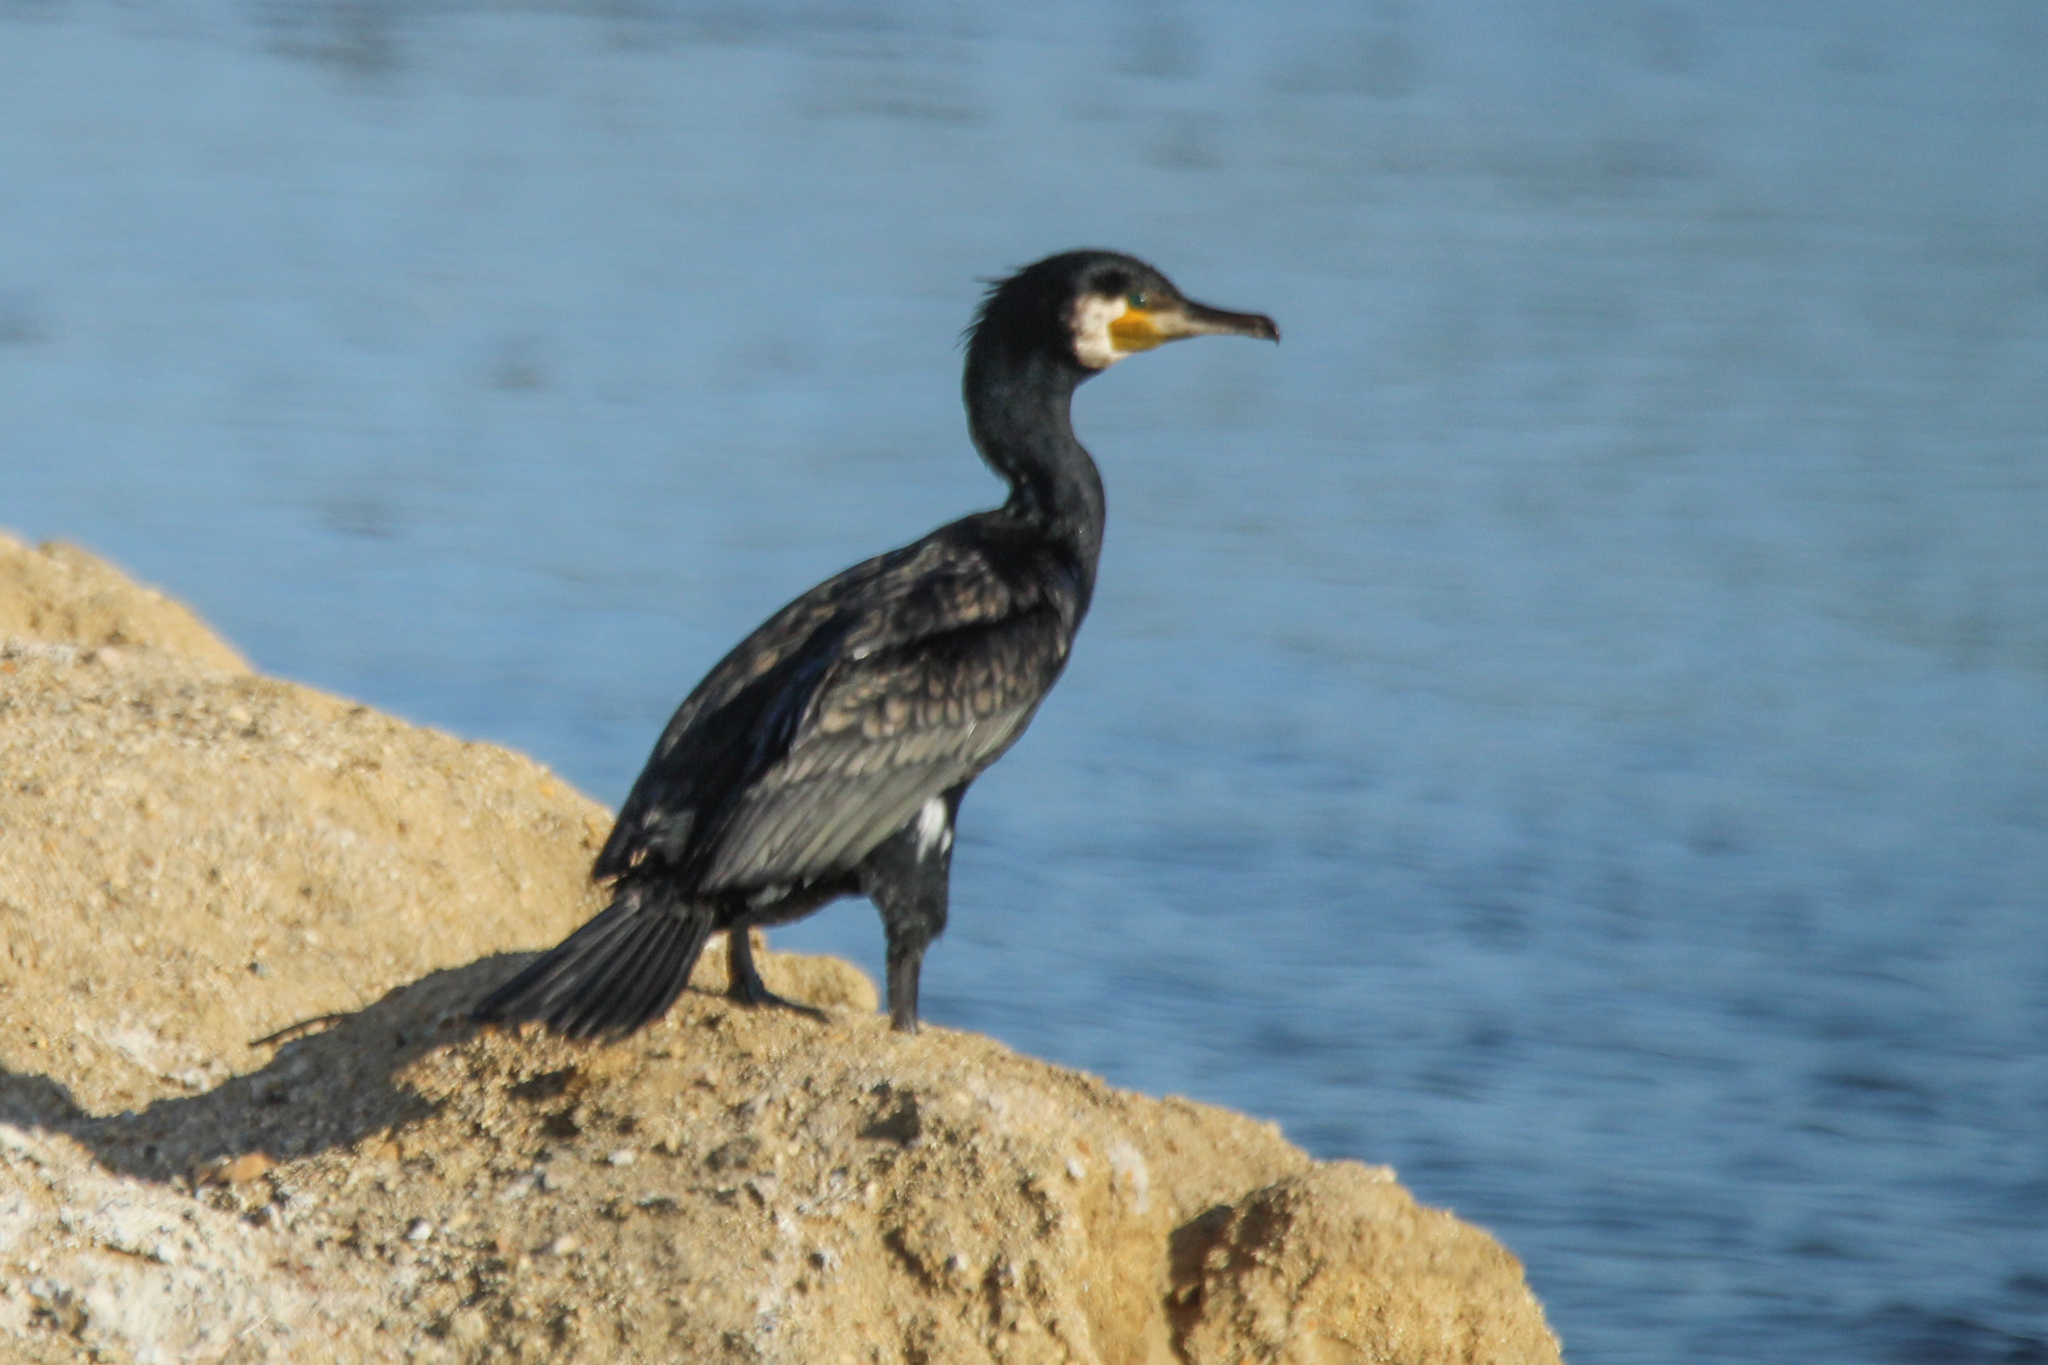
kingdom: Animalia
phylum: Chordata
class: Aves
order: Suliformes
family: Phalacrocoracidae
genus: Phalacrocorax
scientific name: Phalacrocorax carbo
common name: Great cormorant
